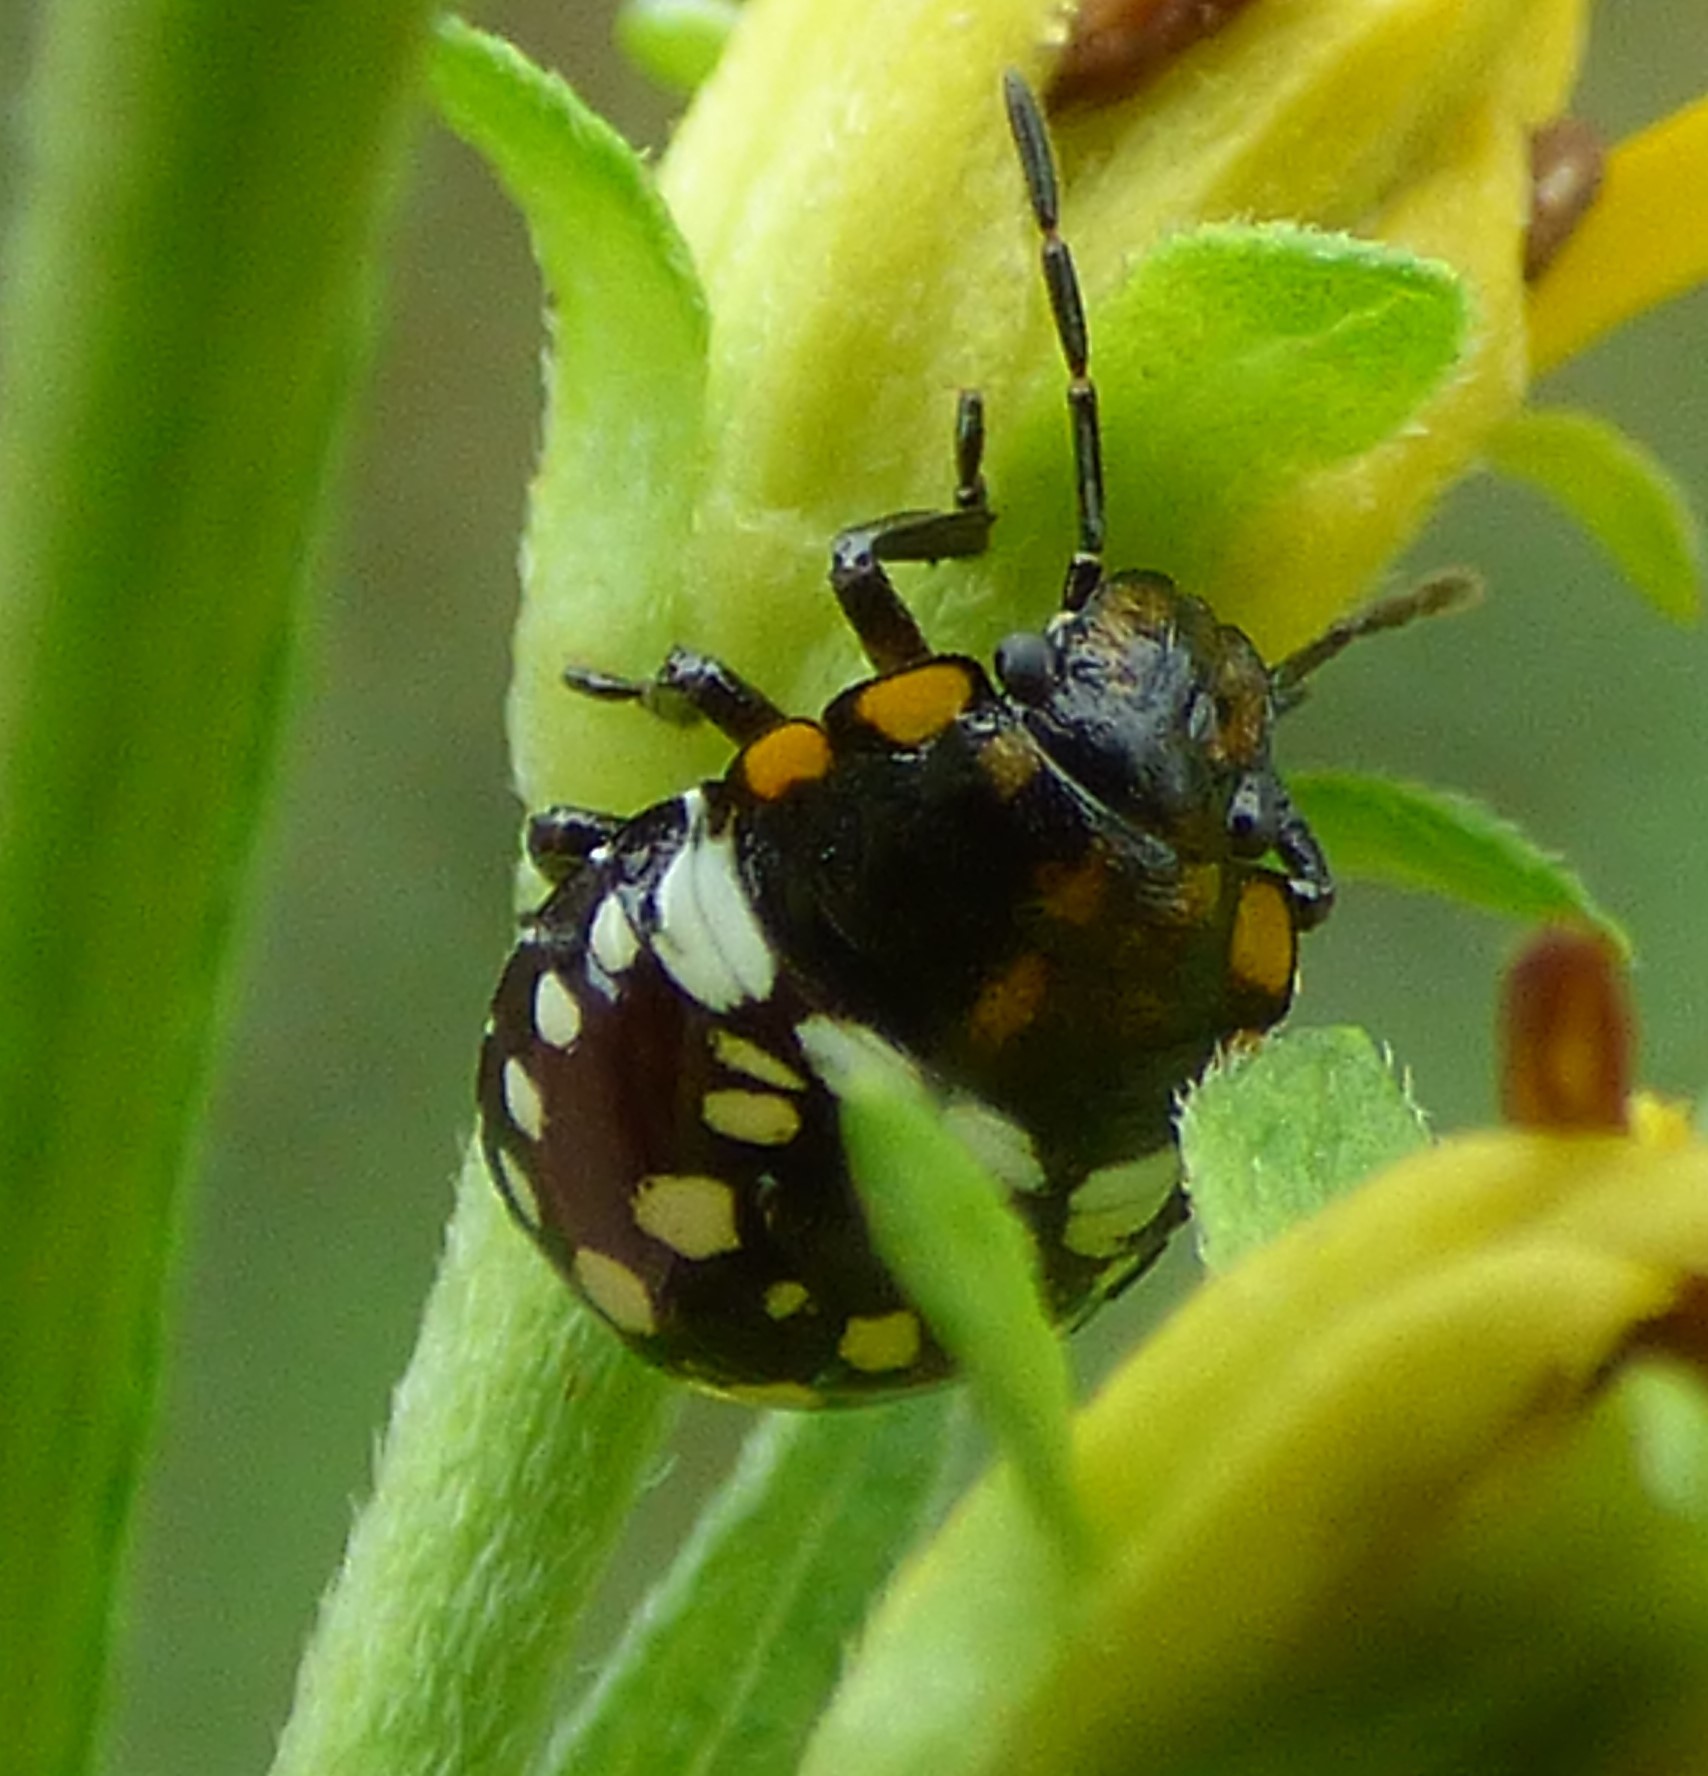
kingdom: Animalia
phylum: Arthropoda
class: Insecta
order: Hemiptera
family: Pentatomidae
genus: Nezara
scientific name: Nezara viridula
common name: Southern green stink bug
